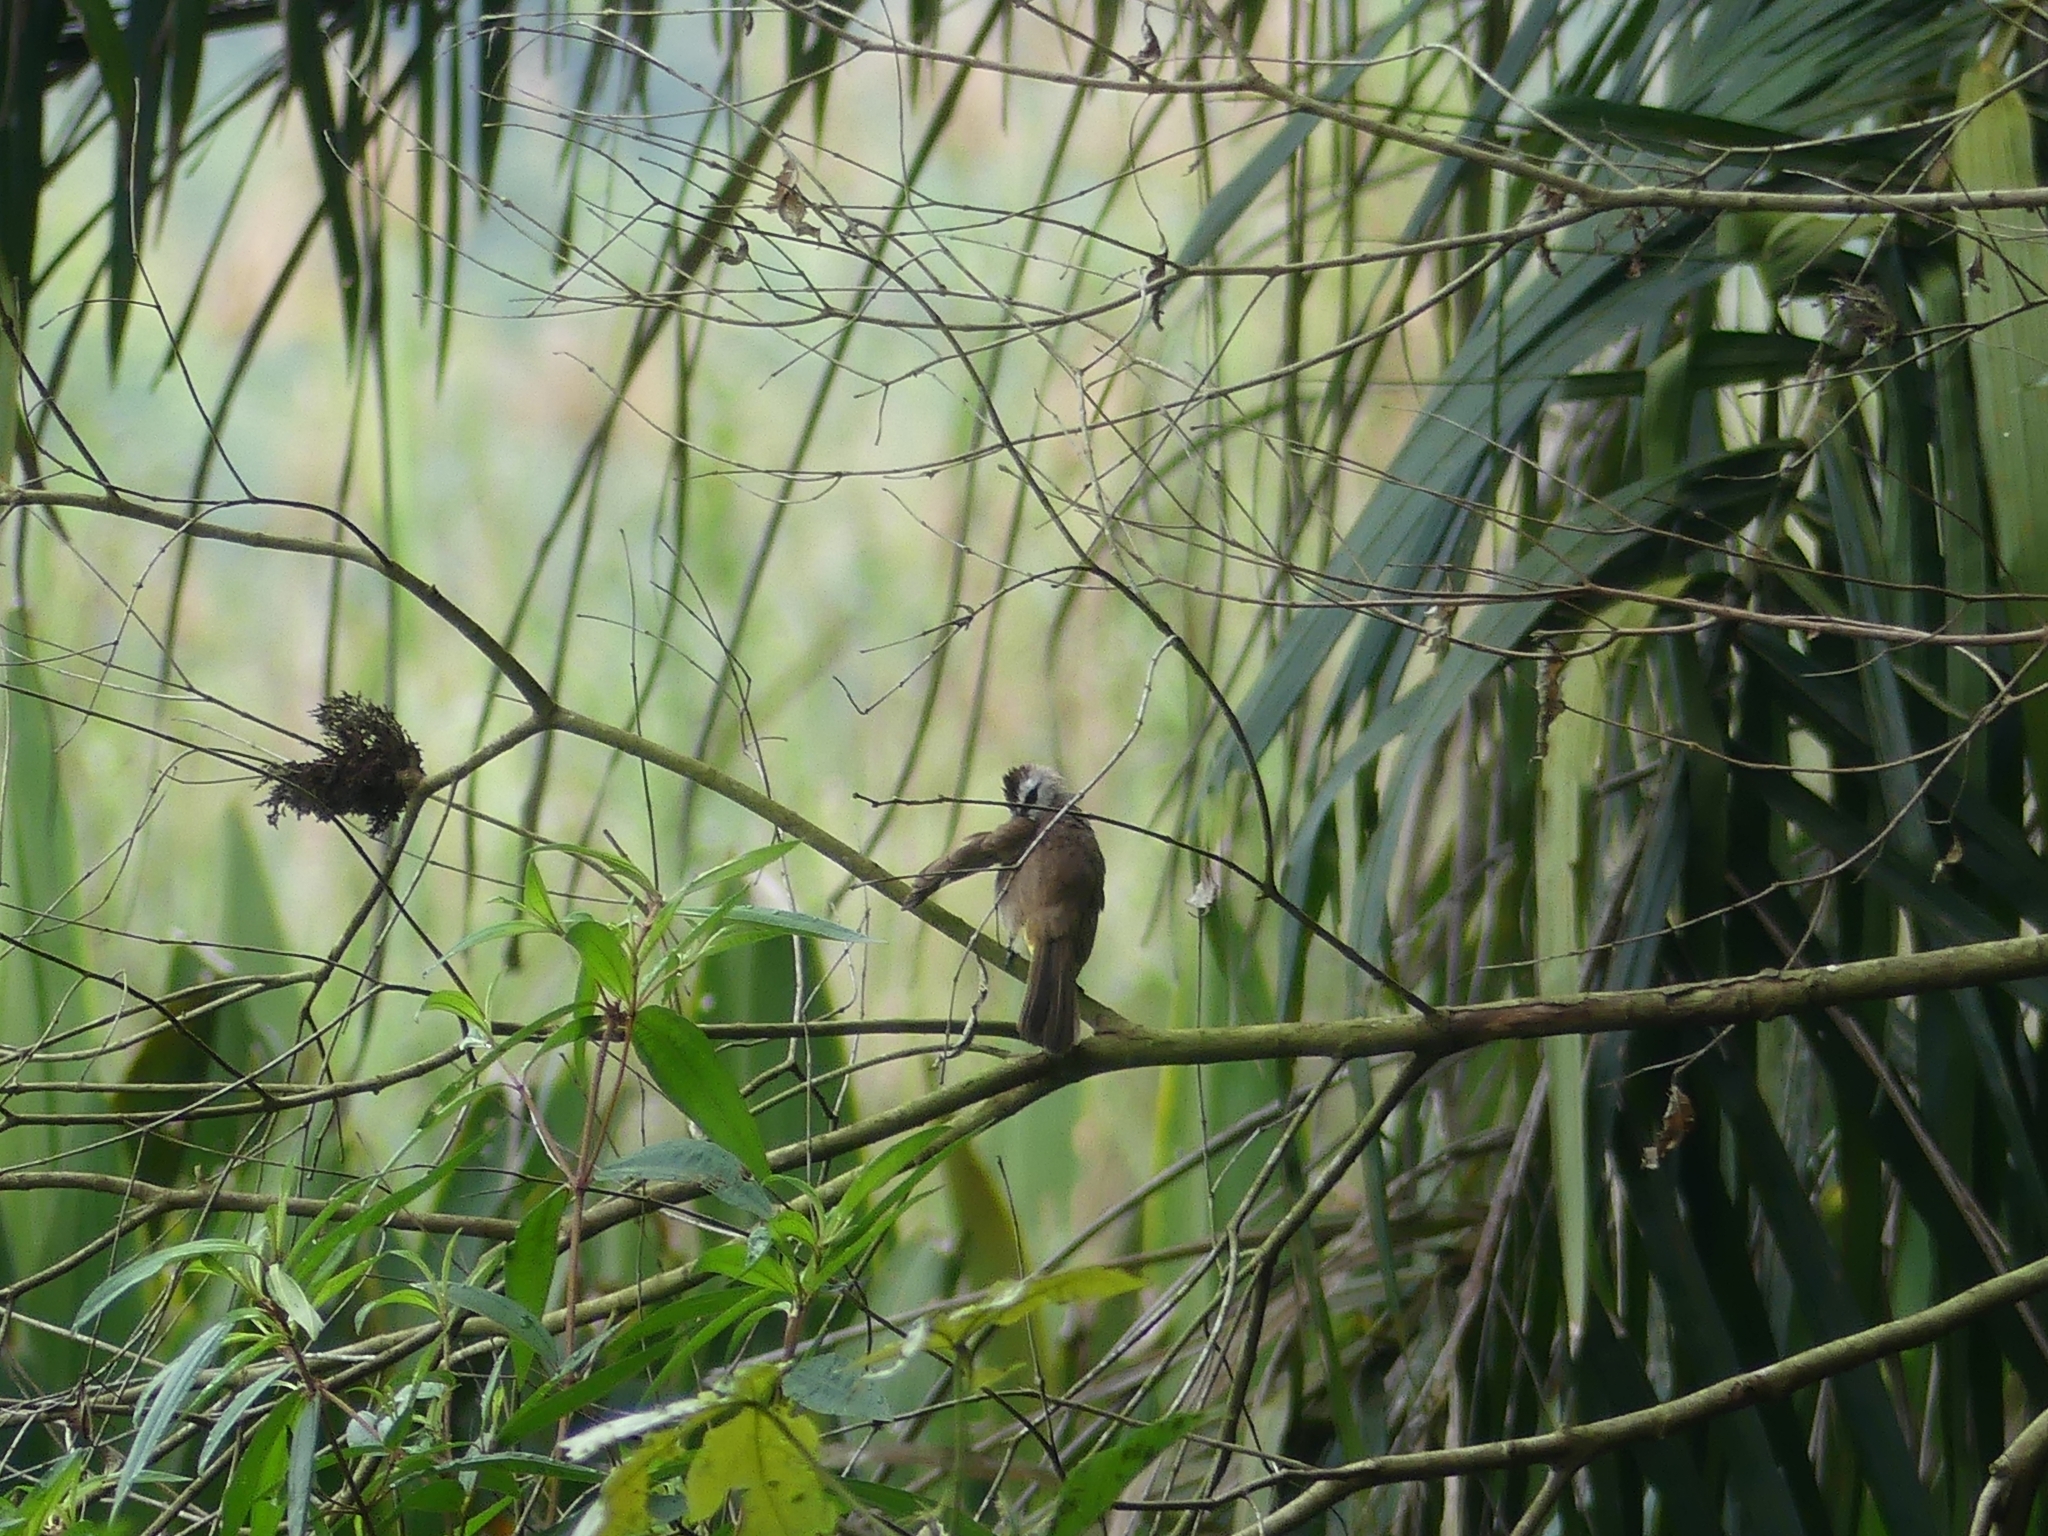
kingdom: Animalia
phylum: Chordata
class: Aves
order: Passeriformes
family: Pycnonotidae
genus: Pycnonotus
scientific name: Pycnonotus goiavier
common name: Yellow-vented bulbul
